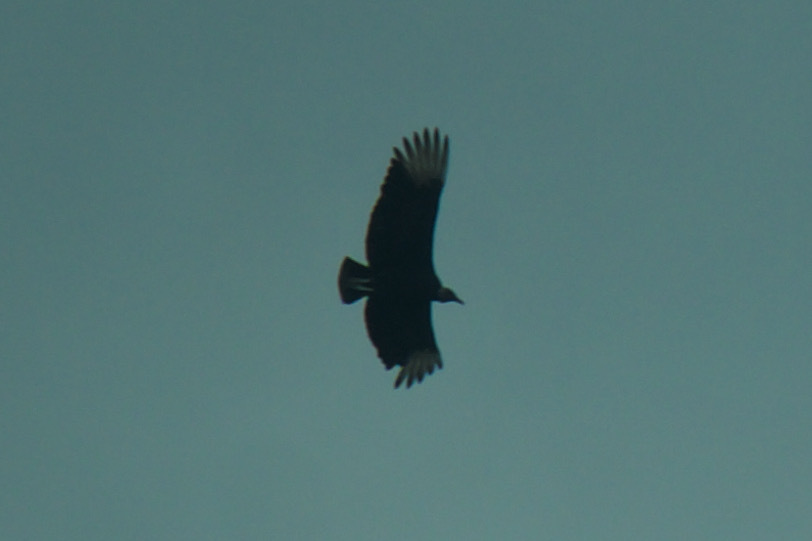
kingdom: Animalia
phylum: Chordata
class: Aves
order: Accipitriformes
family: Cathartidae
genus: Coragyps
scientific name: Coragyps atratus
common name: Black vulture
